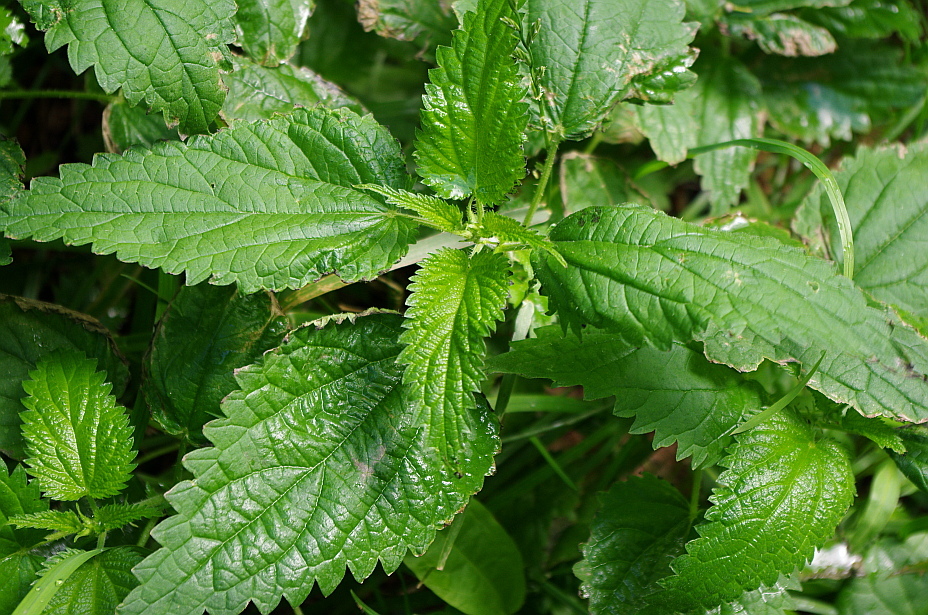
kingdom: Plantae
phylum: Tracheophyta
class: Magnoliopsida
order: Rosales
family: Urticaceae
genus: Urtica
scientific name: Urtica dioica
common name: Common nettle
